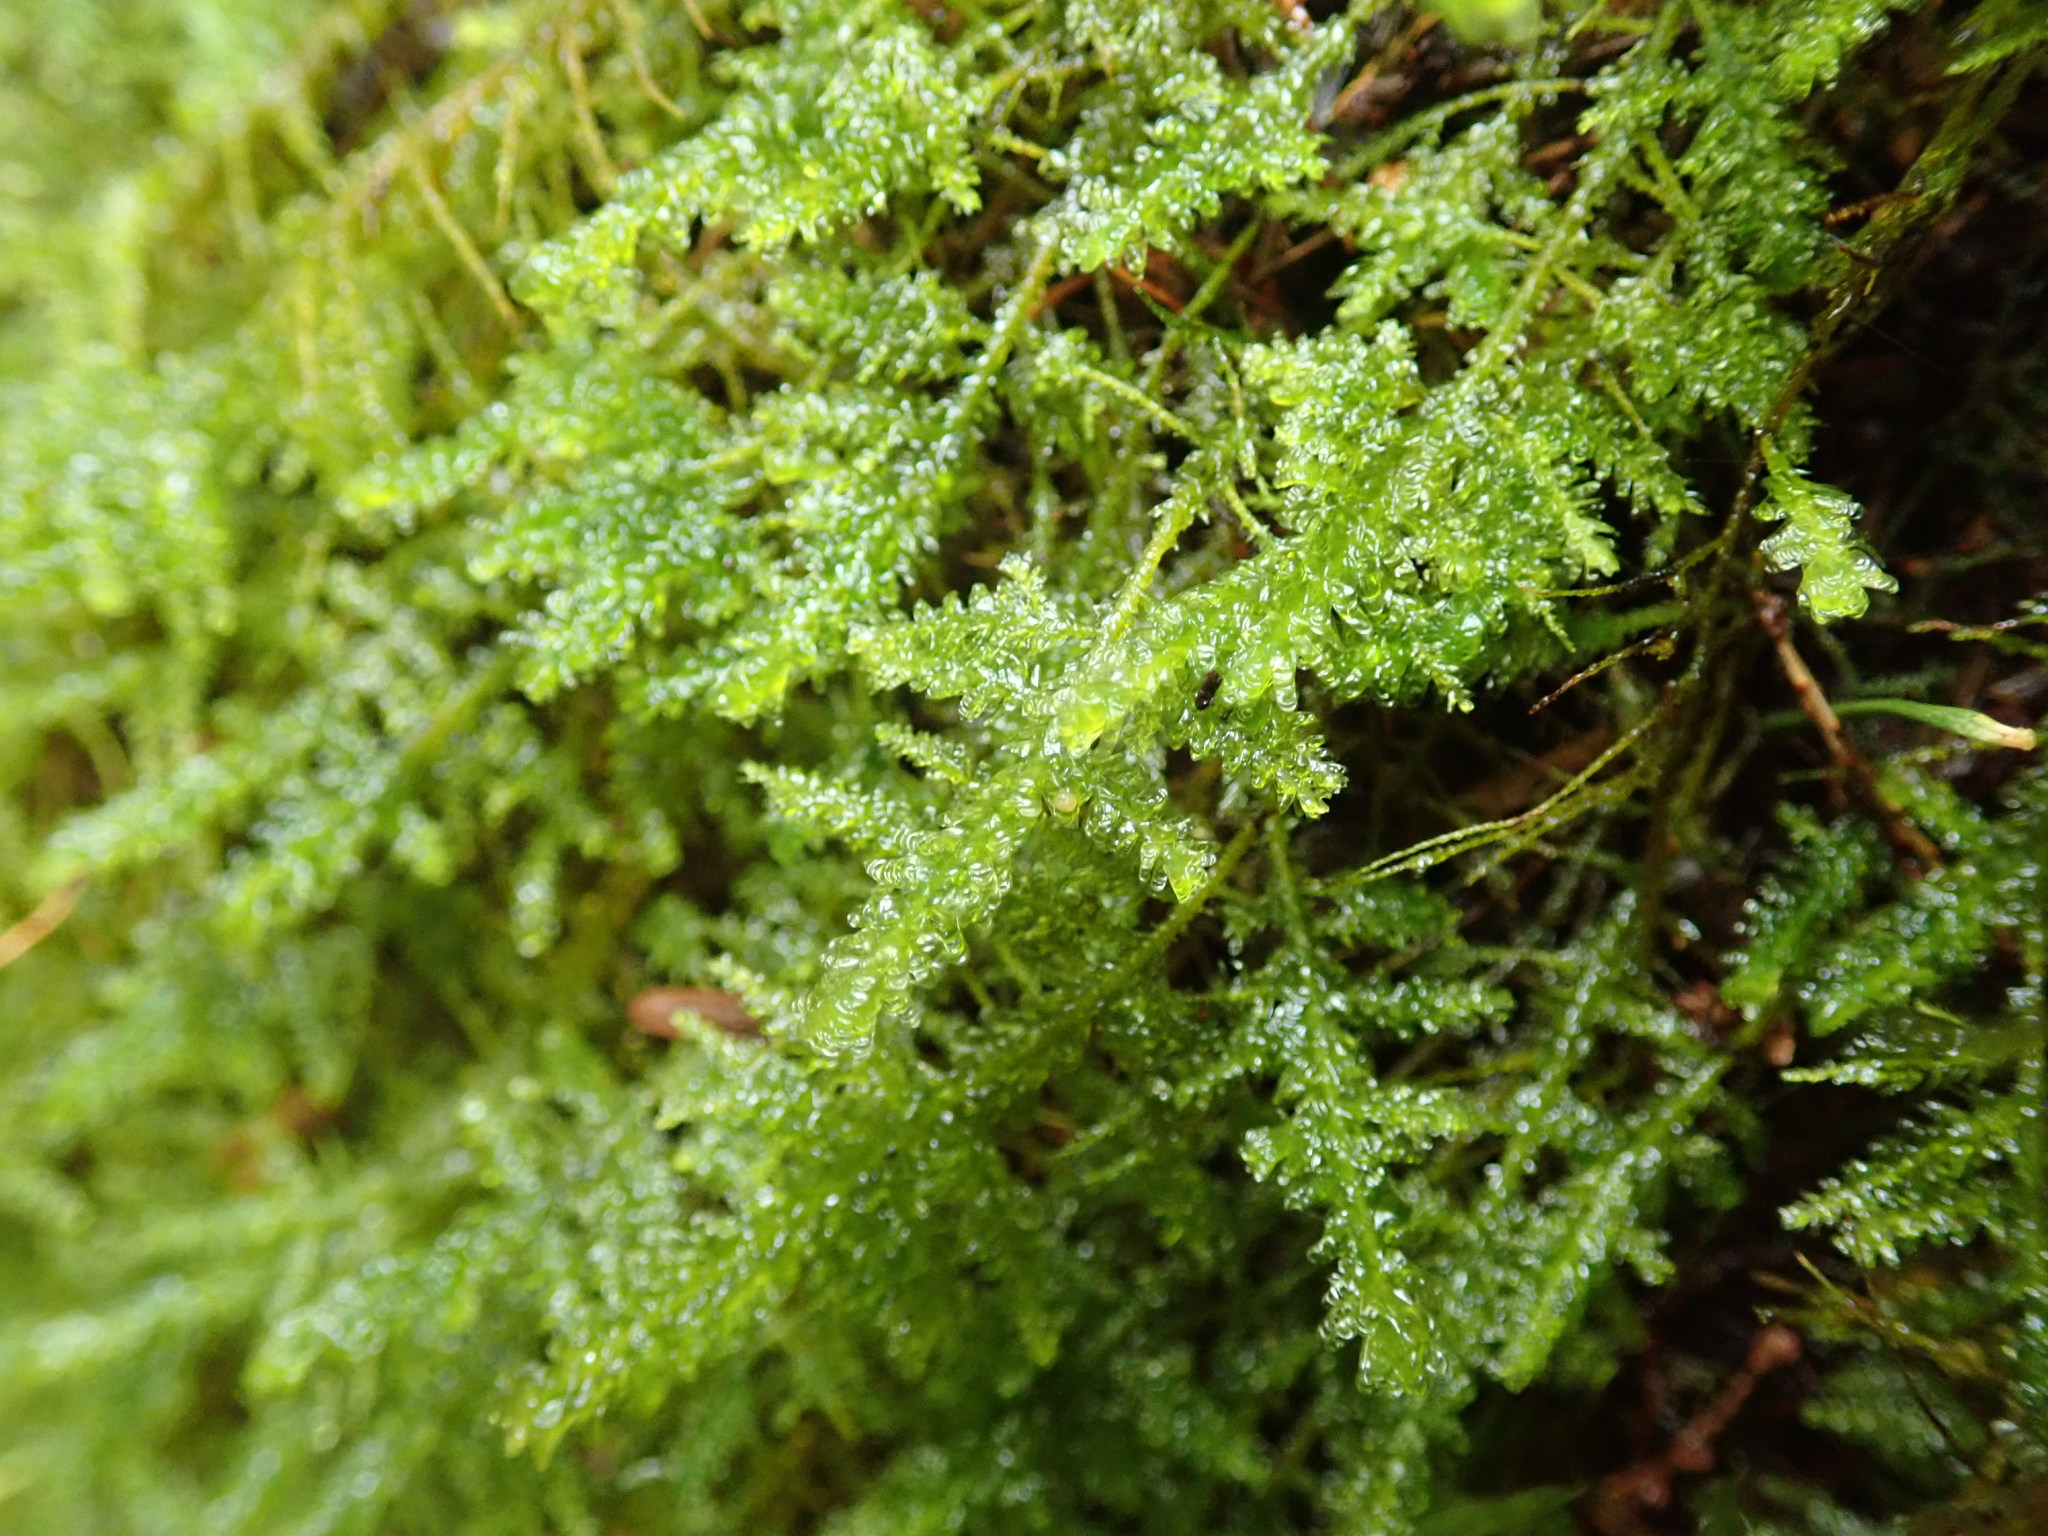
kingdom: Plantae
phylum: Bryophyta
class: Bryopsida
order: Hypnales
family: Neckeraceae
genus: Metaneckera
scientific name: Metaneckera menziesii
